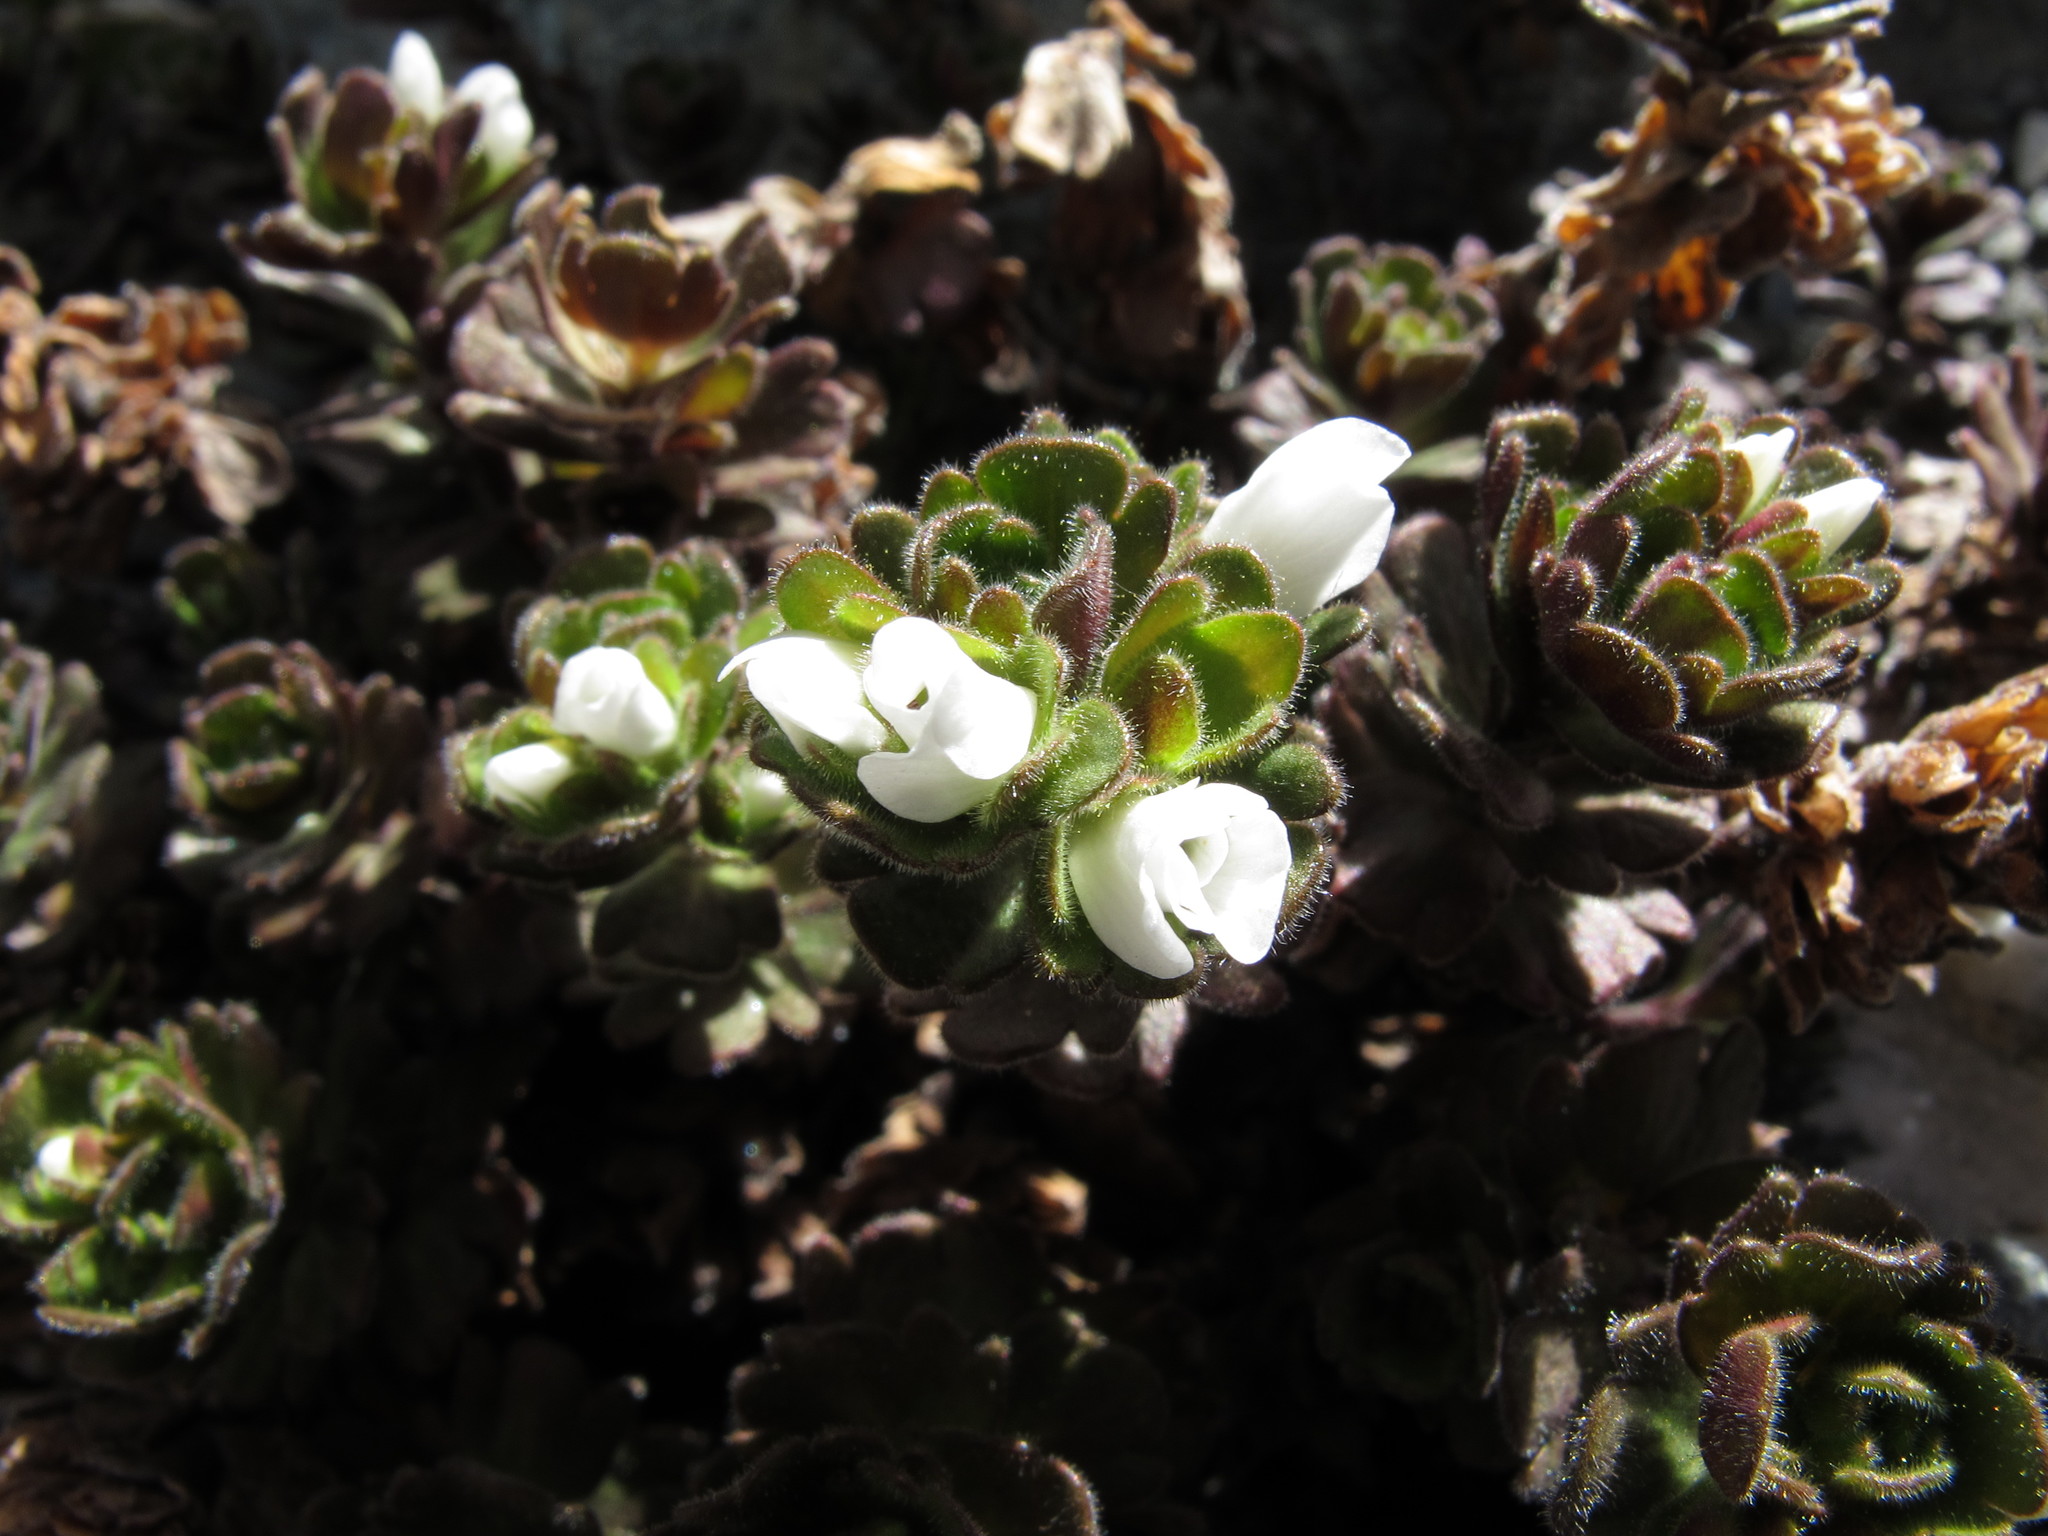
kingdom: Plantae
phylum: Tracheophyta
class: Magnoliopsida
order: Lamiales
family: Plantaginaceae
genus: Veronica
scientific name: Veronica birleyi
